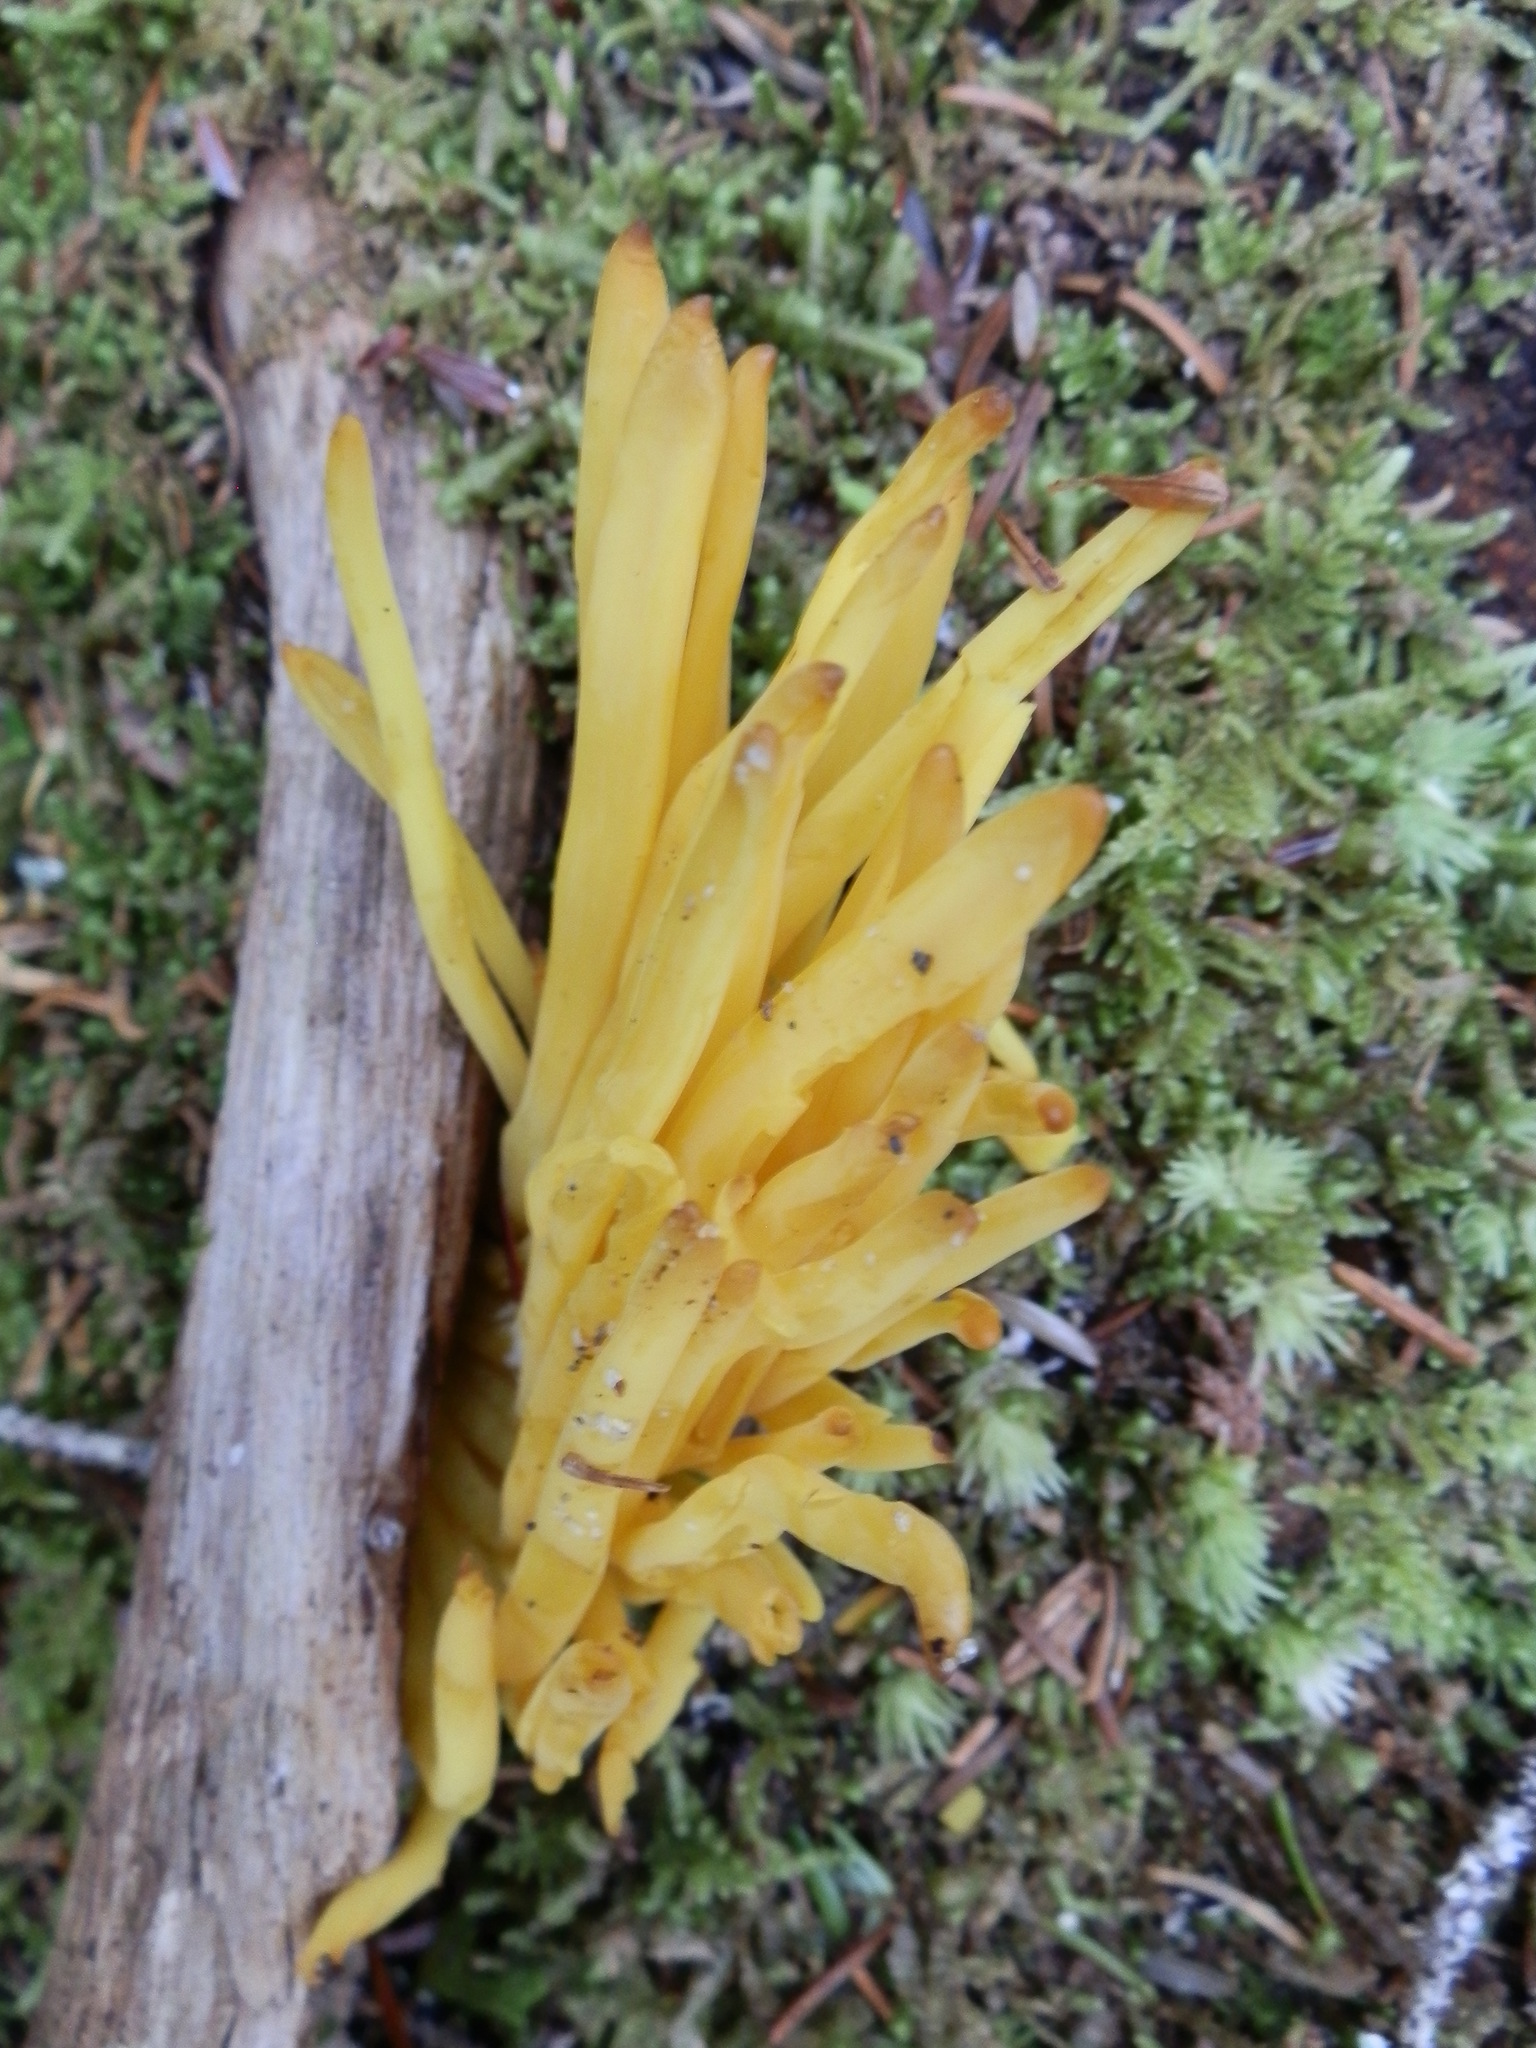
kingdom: Fungi
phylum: Basidiomycota
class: Agaricomycetes
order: Agaricales
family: Clavariaceae
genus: Clavulinopsis
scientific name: Clavulinopsis fusiformis
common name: Golden spindles
